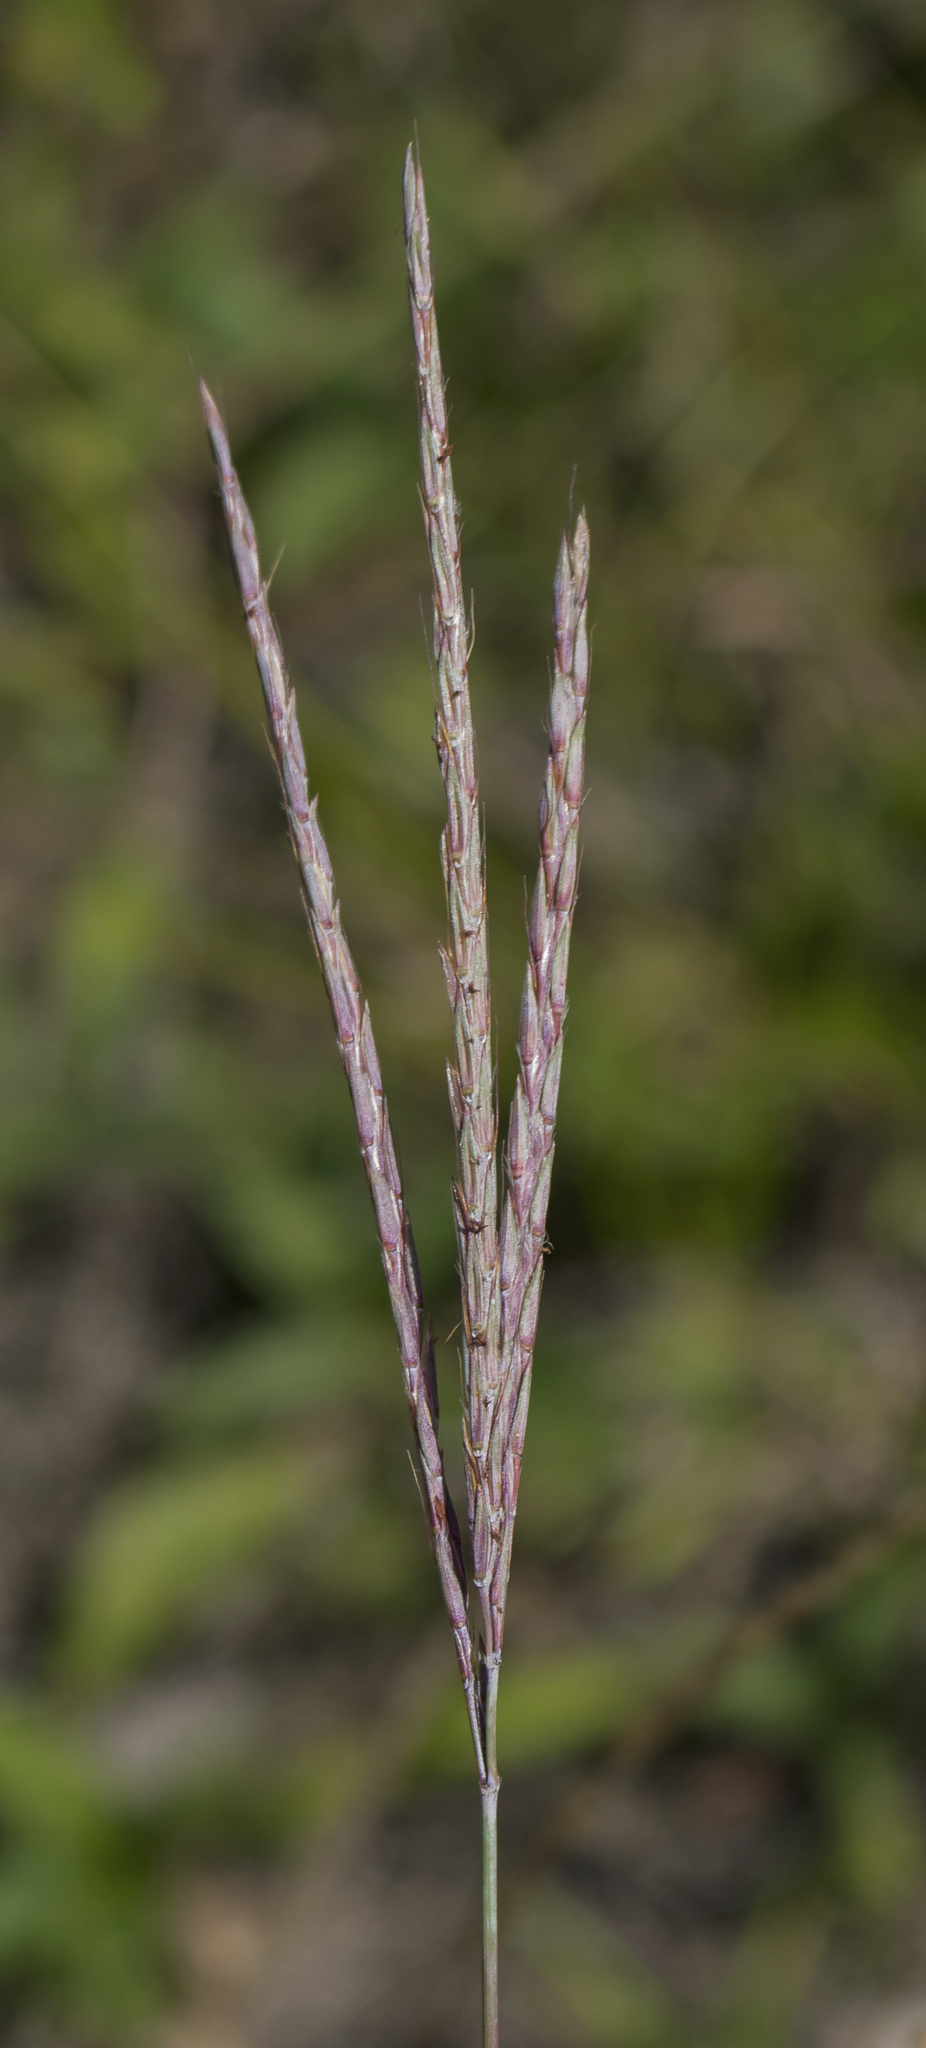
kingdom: Plantae
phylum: Tracheophyta
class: Liliopsida
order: Poales
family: Poaceae
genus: Andropogon
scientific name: Andropogon gerardi
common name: Big bluestem
